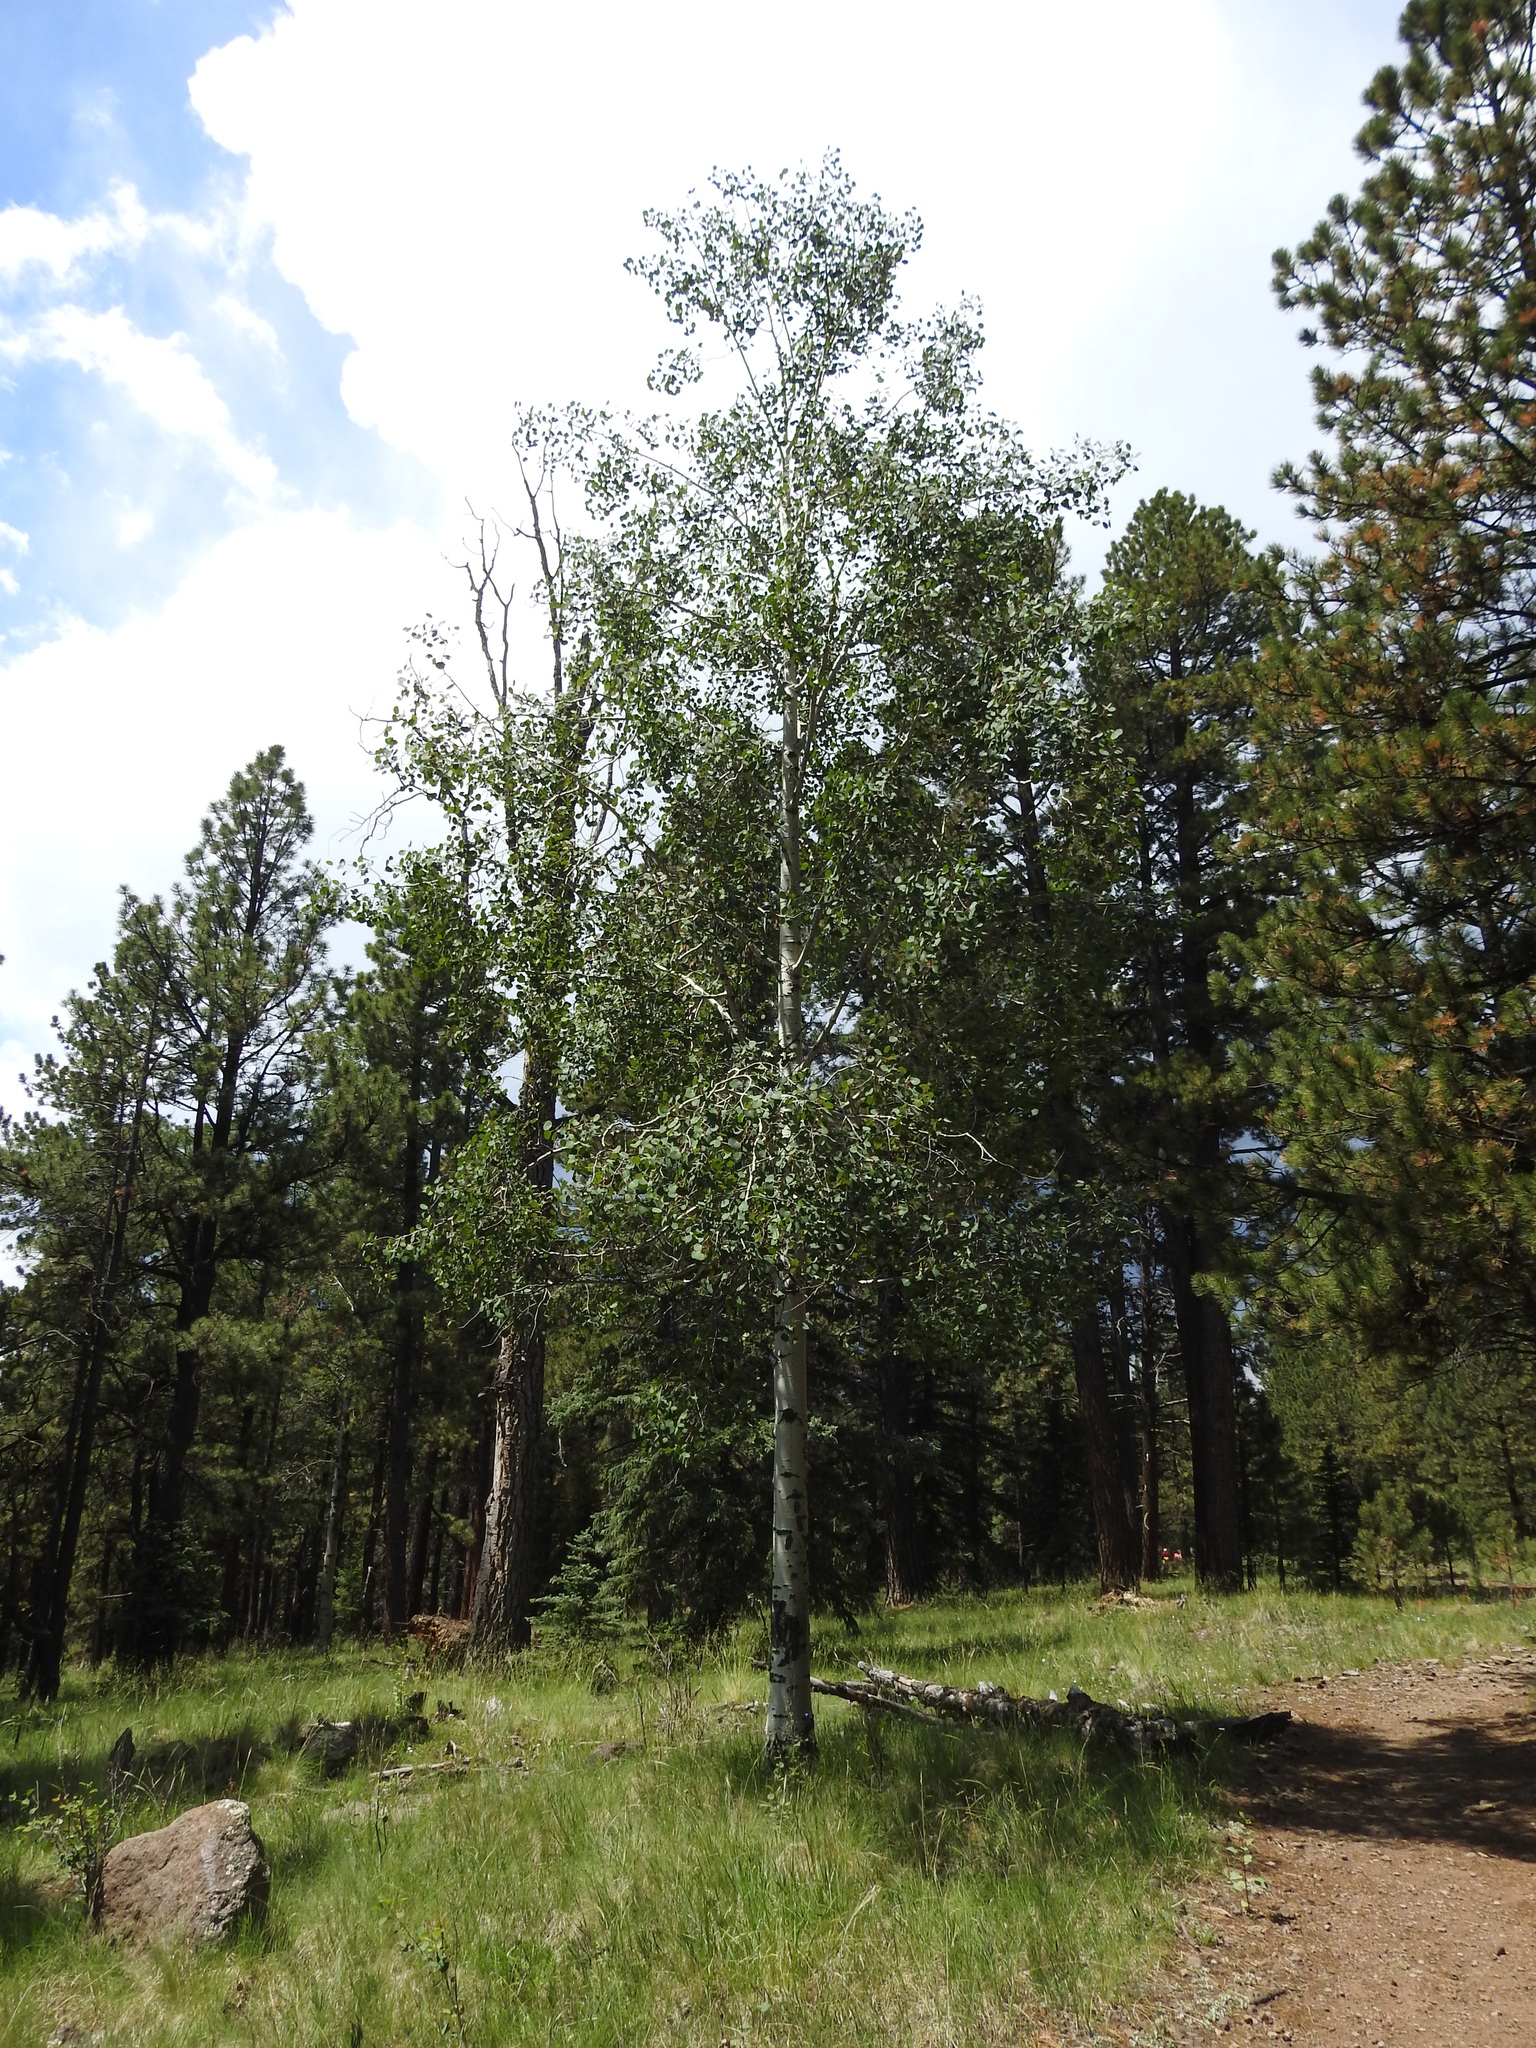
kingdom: Plantae
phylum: Tracheophyta
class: Magnoliopsida
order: Malpighiales
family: Salicaceae
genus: Populus
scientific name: Populus tremuloides
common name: Quaking aspen
